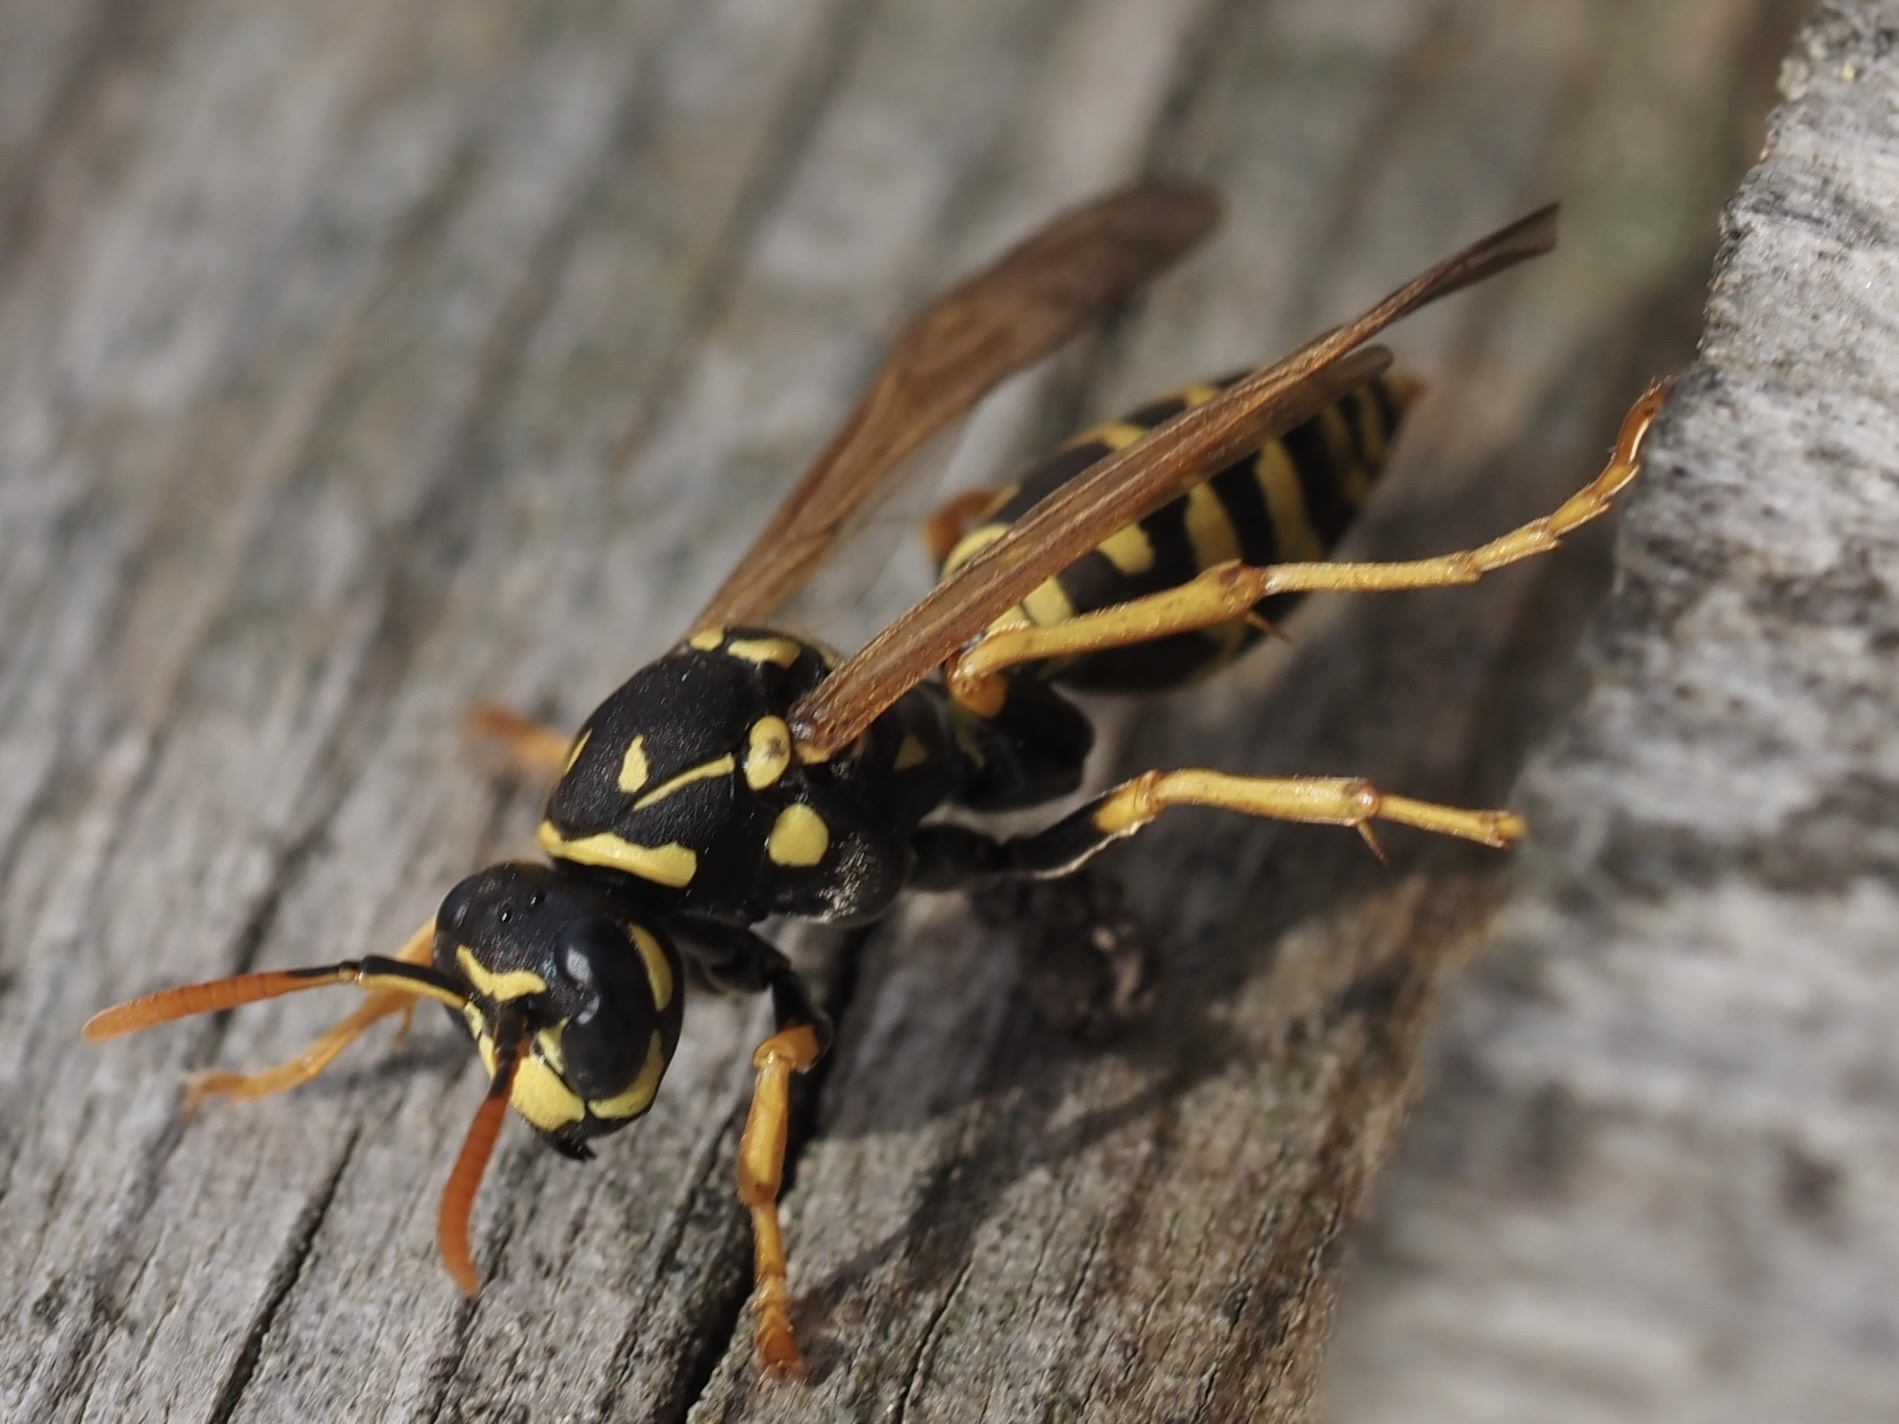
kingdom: Animalia
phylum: Arthropoda
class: Insecta
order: Hymenoptera
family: Eumenidae
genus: Polistes
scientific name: Polistes dominula
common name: Paper wasp
